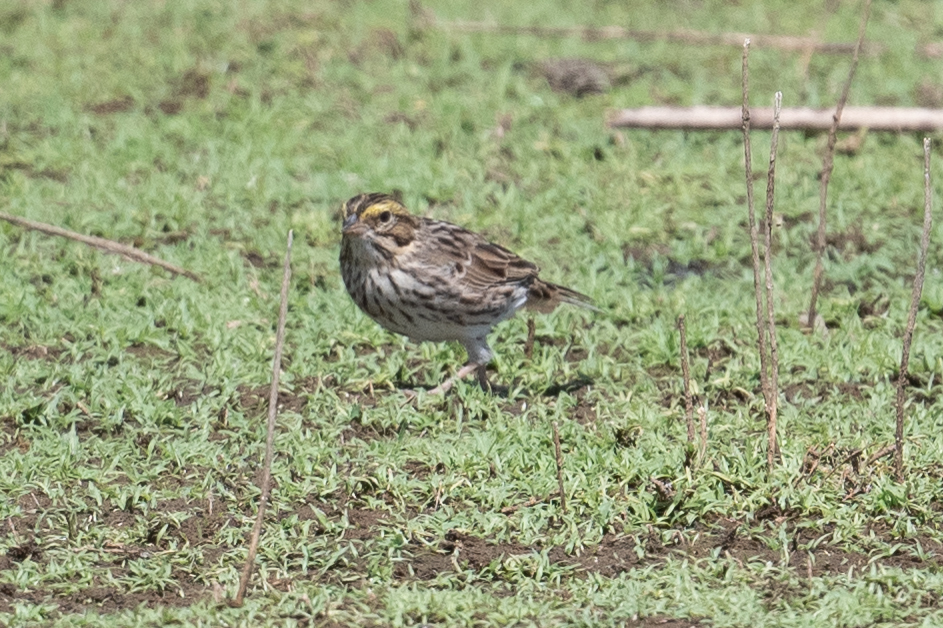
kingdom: Animalia
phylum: Chordata
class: Aves
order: Passeriformes
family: Passerellidae
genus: Passerculus
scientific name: Passerculus sandwichensis
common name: Savannah sparrow
